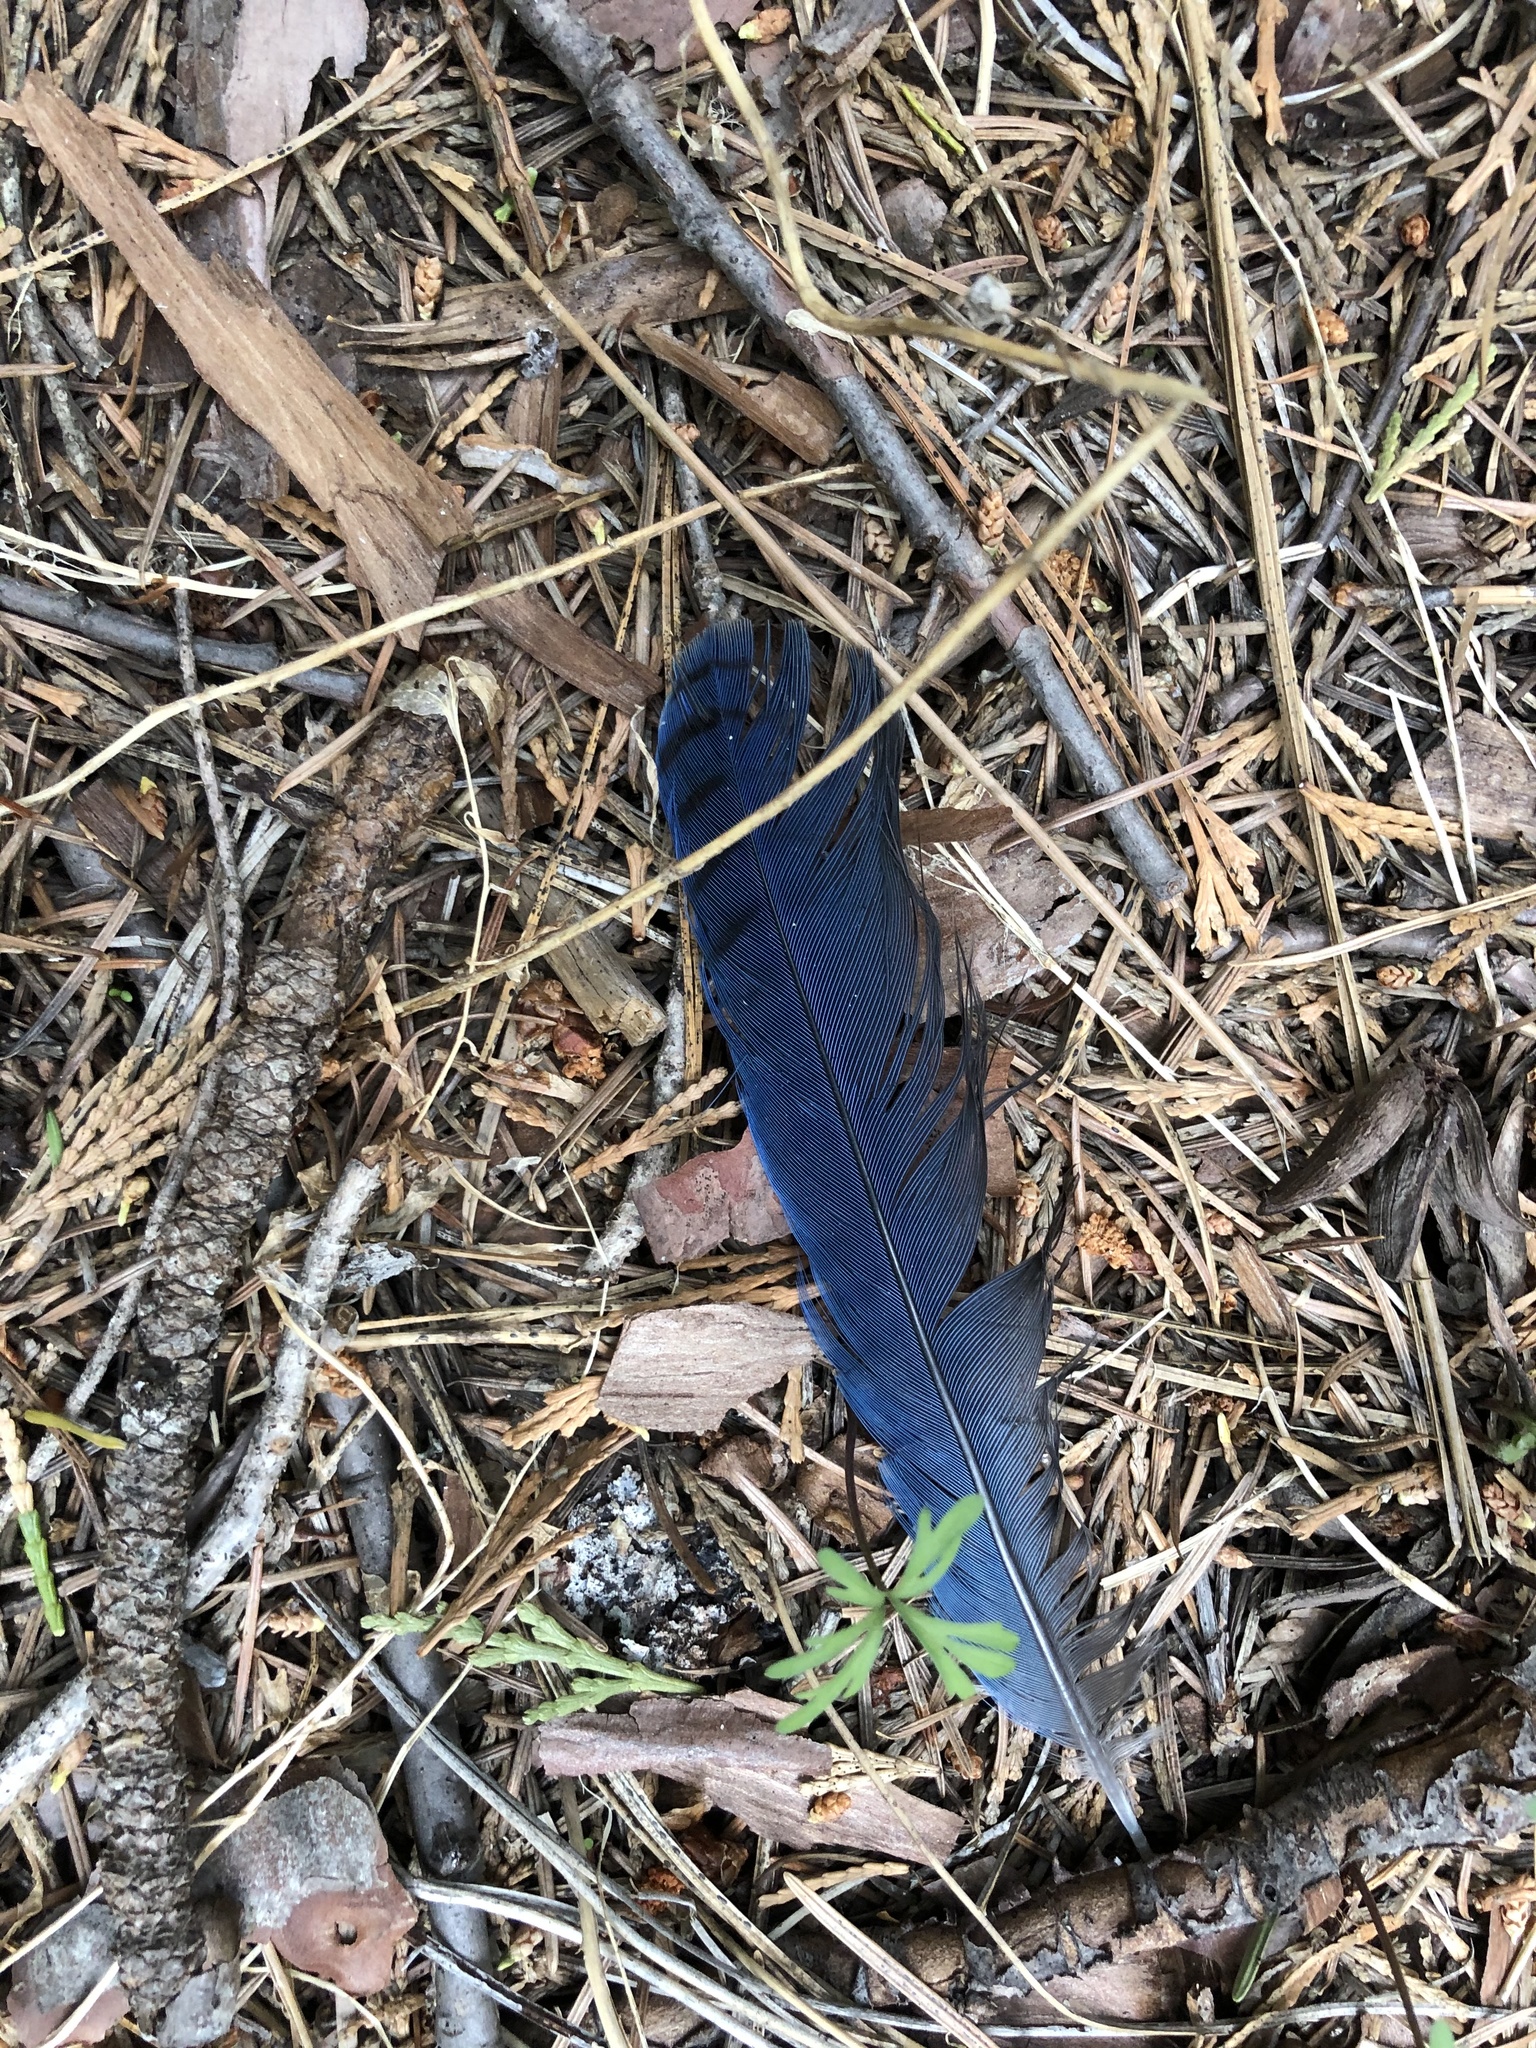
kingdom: Animalia
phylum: Chordata
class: Aves
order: Passeriformes
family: Corvidae
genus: Cyanocitta
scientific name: Cyanocitta stelleri
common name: Steller's jay
